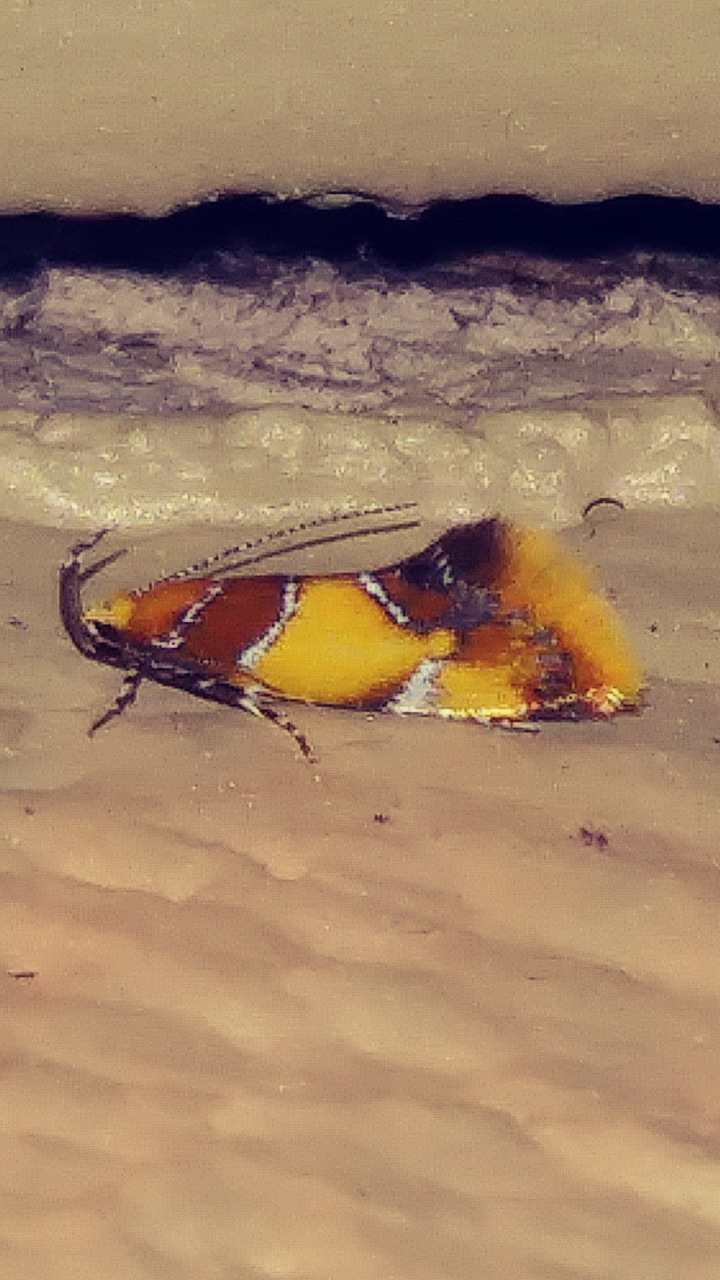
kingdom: Animalia
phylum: Arthropoda
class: Insecta
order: Lepidoptera
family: Oecophoridae
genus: Callima
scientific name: Callima argenticinctella
